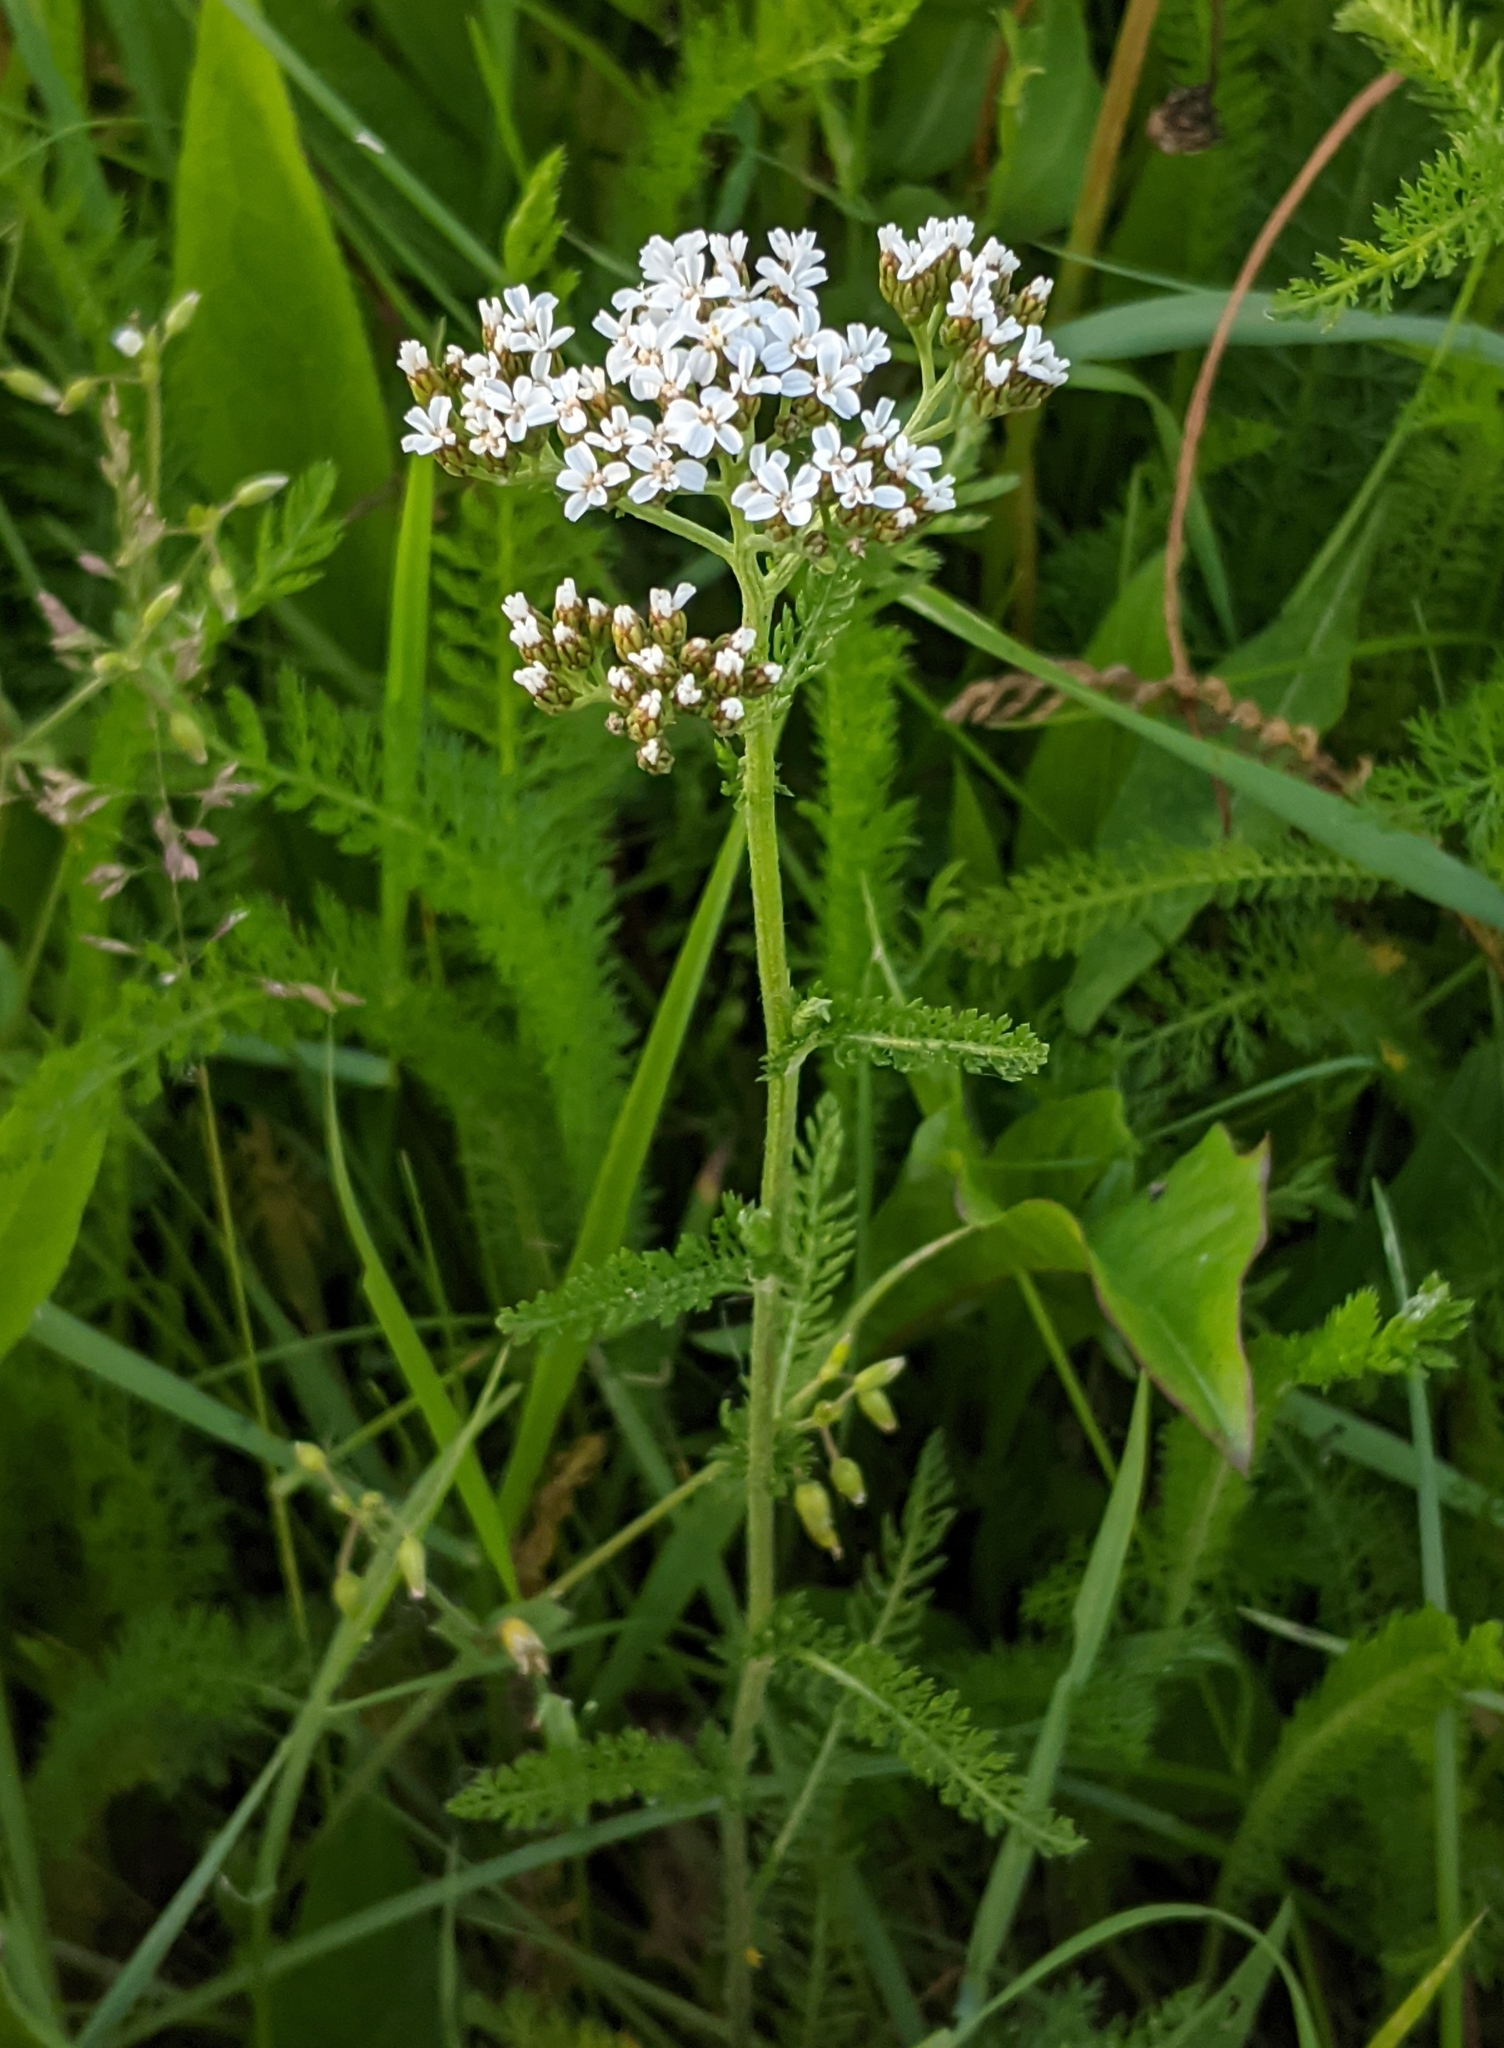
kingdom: Plantae
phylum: Tracheophyta
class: Magnoliopsida
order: Asterales
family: Asteraceae
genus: Achillea
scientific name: Achillea millefolium
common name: Yarrow
